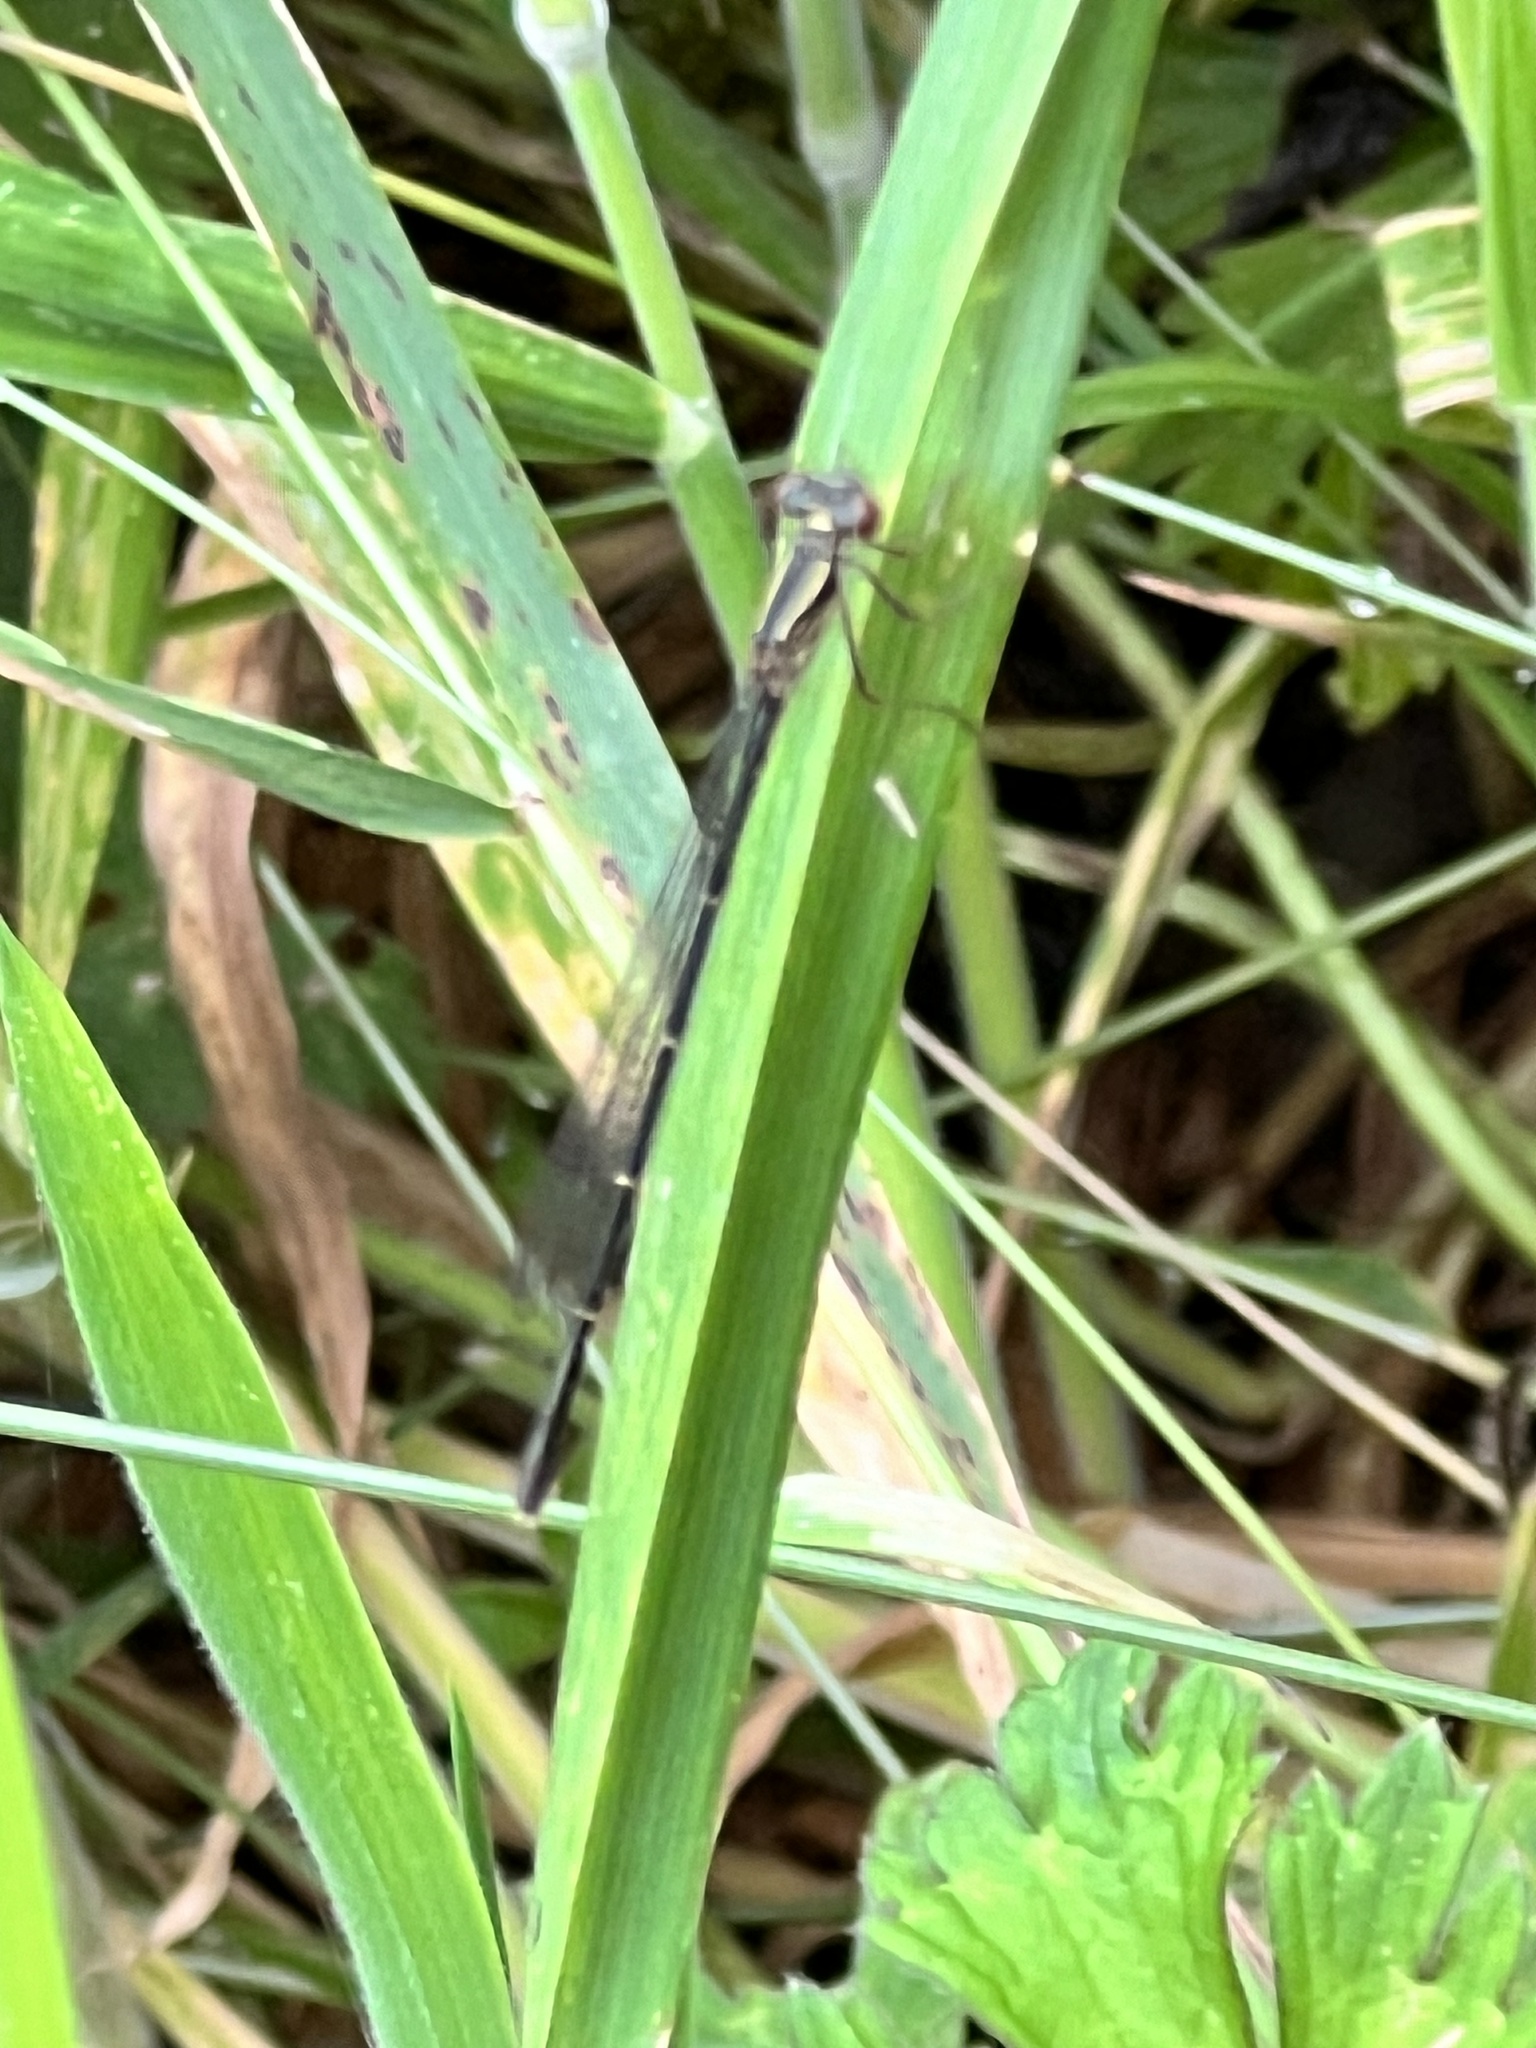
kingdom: Animalia
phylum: Arthropoda
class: Insecta
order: Odonata
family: Coenagrionidae
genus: Xanthocnemis
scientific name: Xanthocnemis zealandica
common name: Common redcoat damselfly
